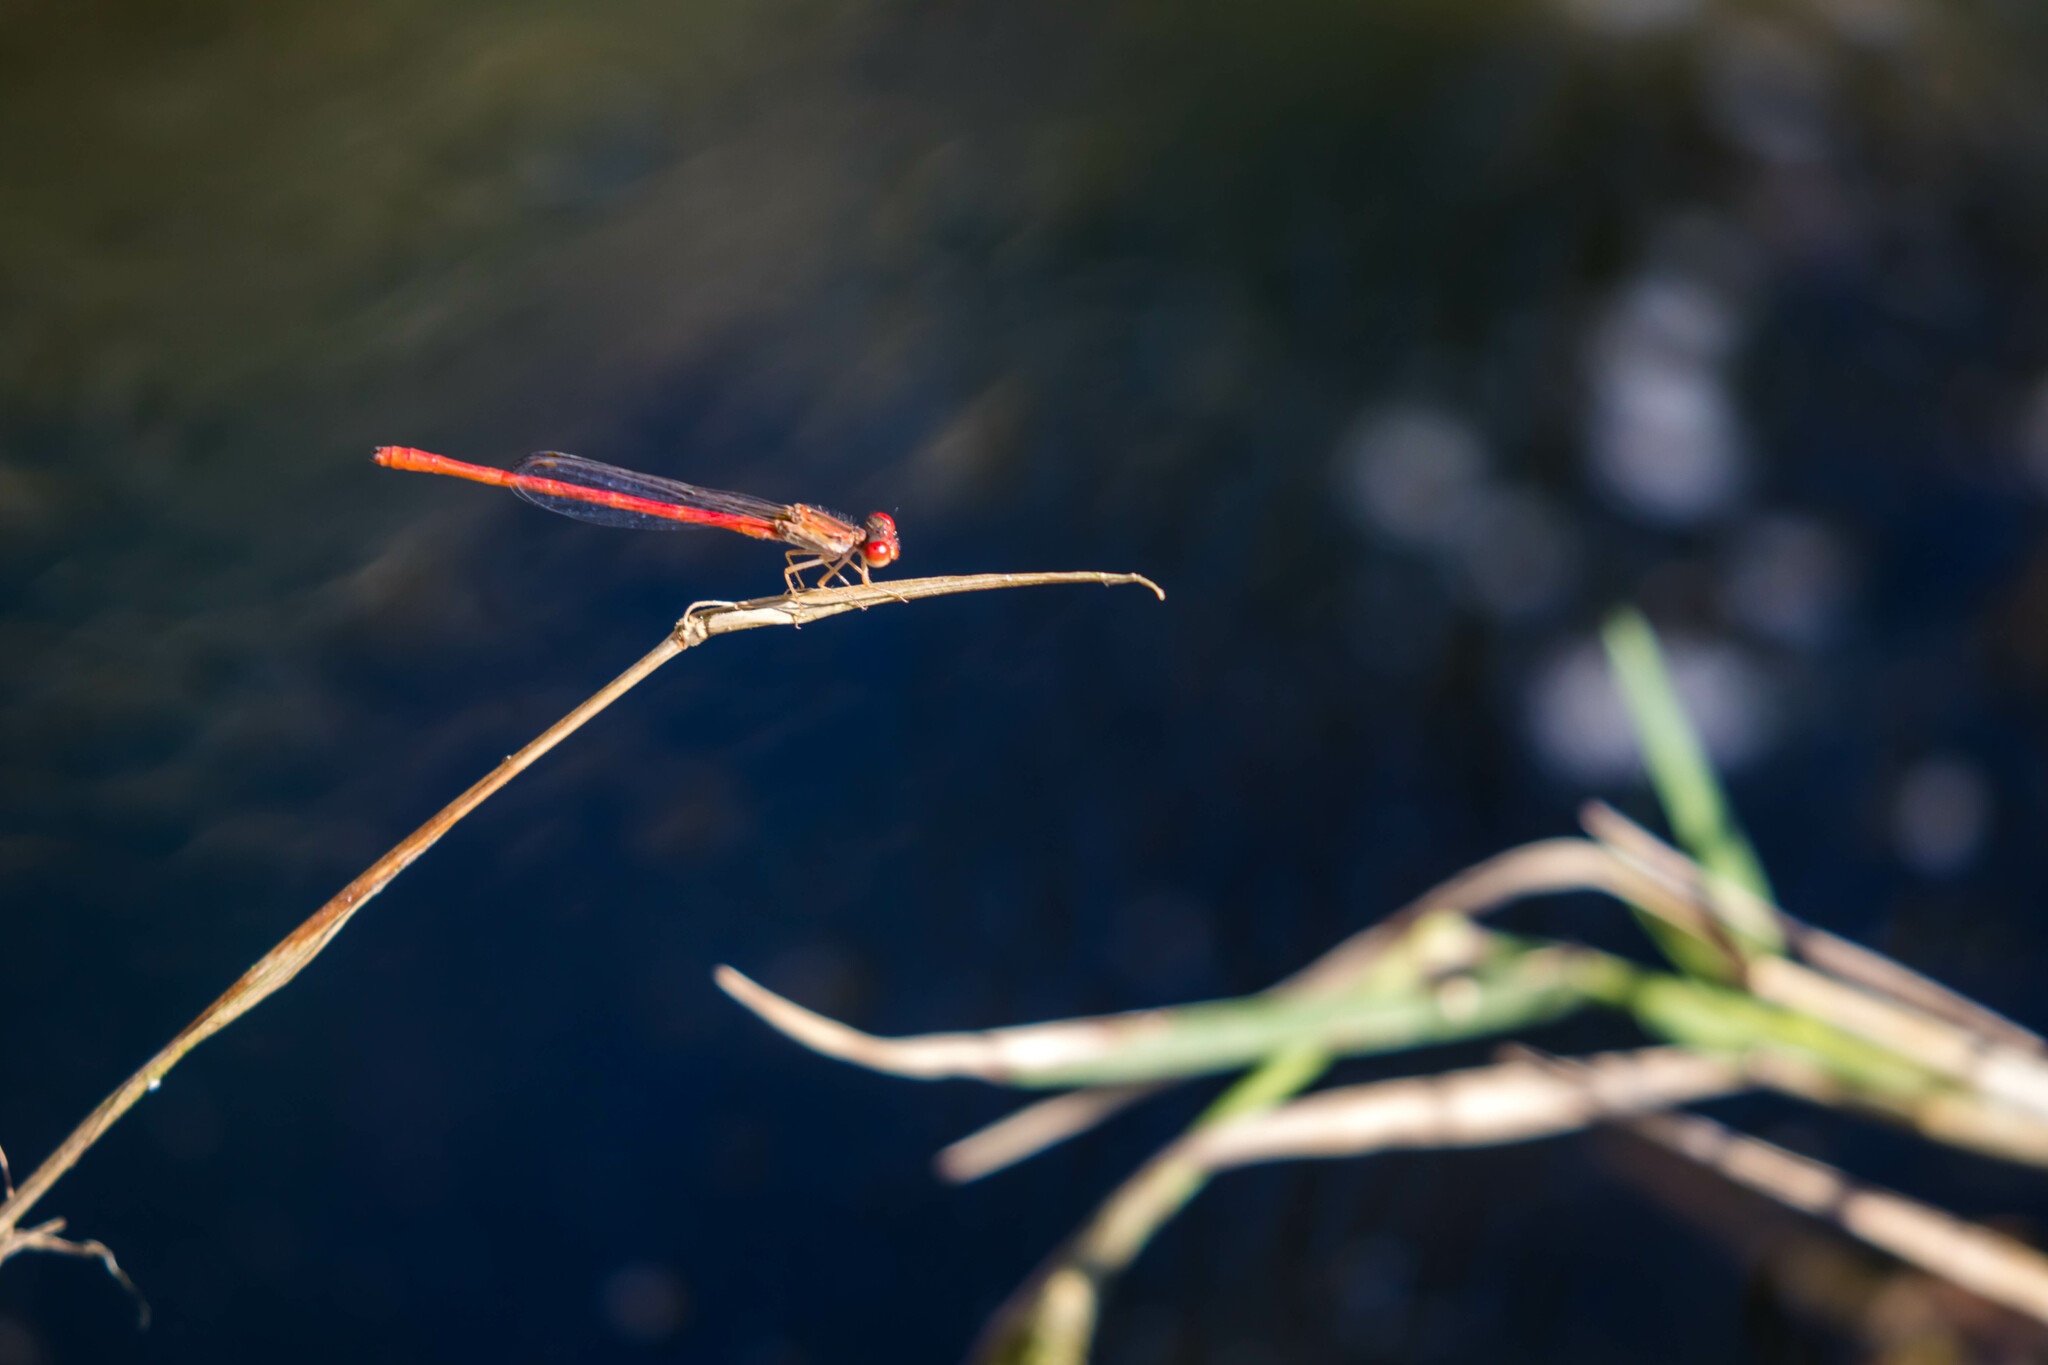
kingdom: Animalia
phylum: Arthropoda
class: Insecta
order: Odonata
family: Coenagrionidae
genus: Telebasis
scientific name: Telebasis salva
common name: Desert firetail
